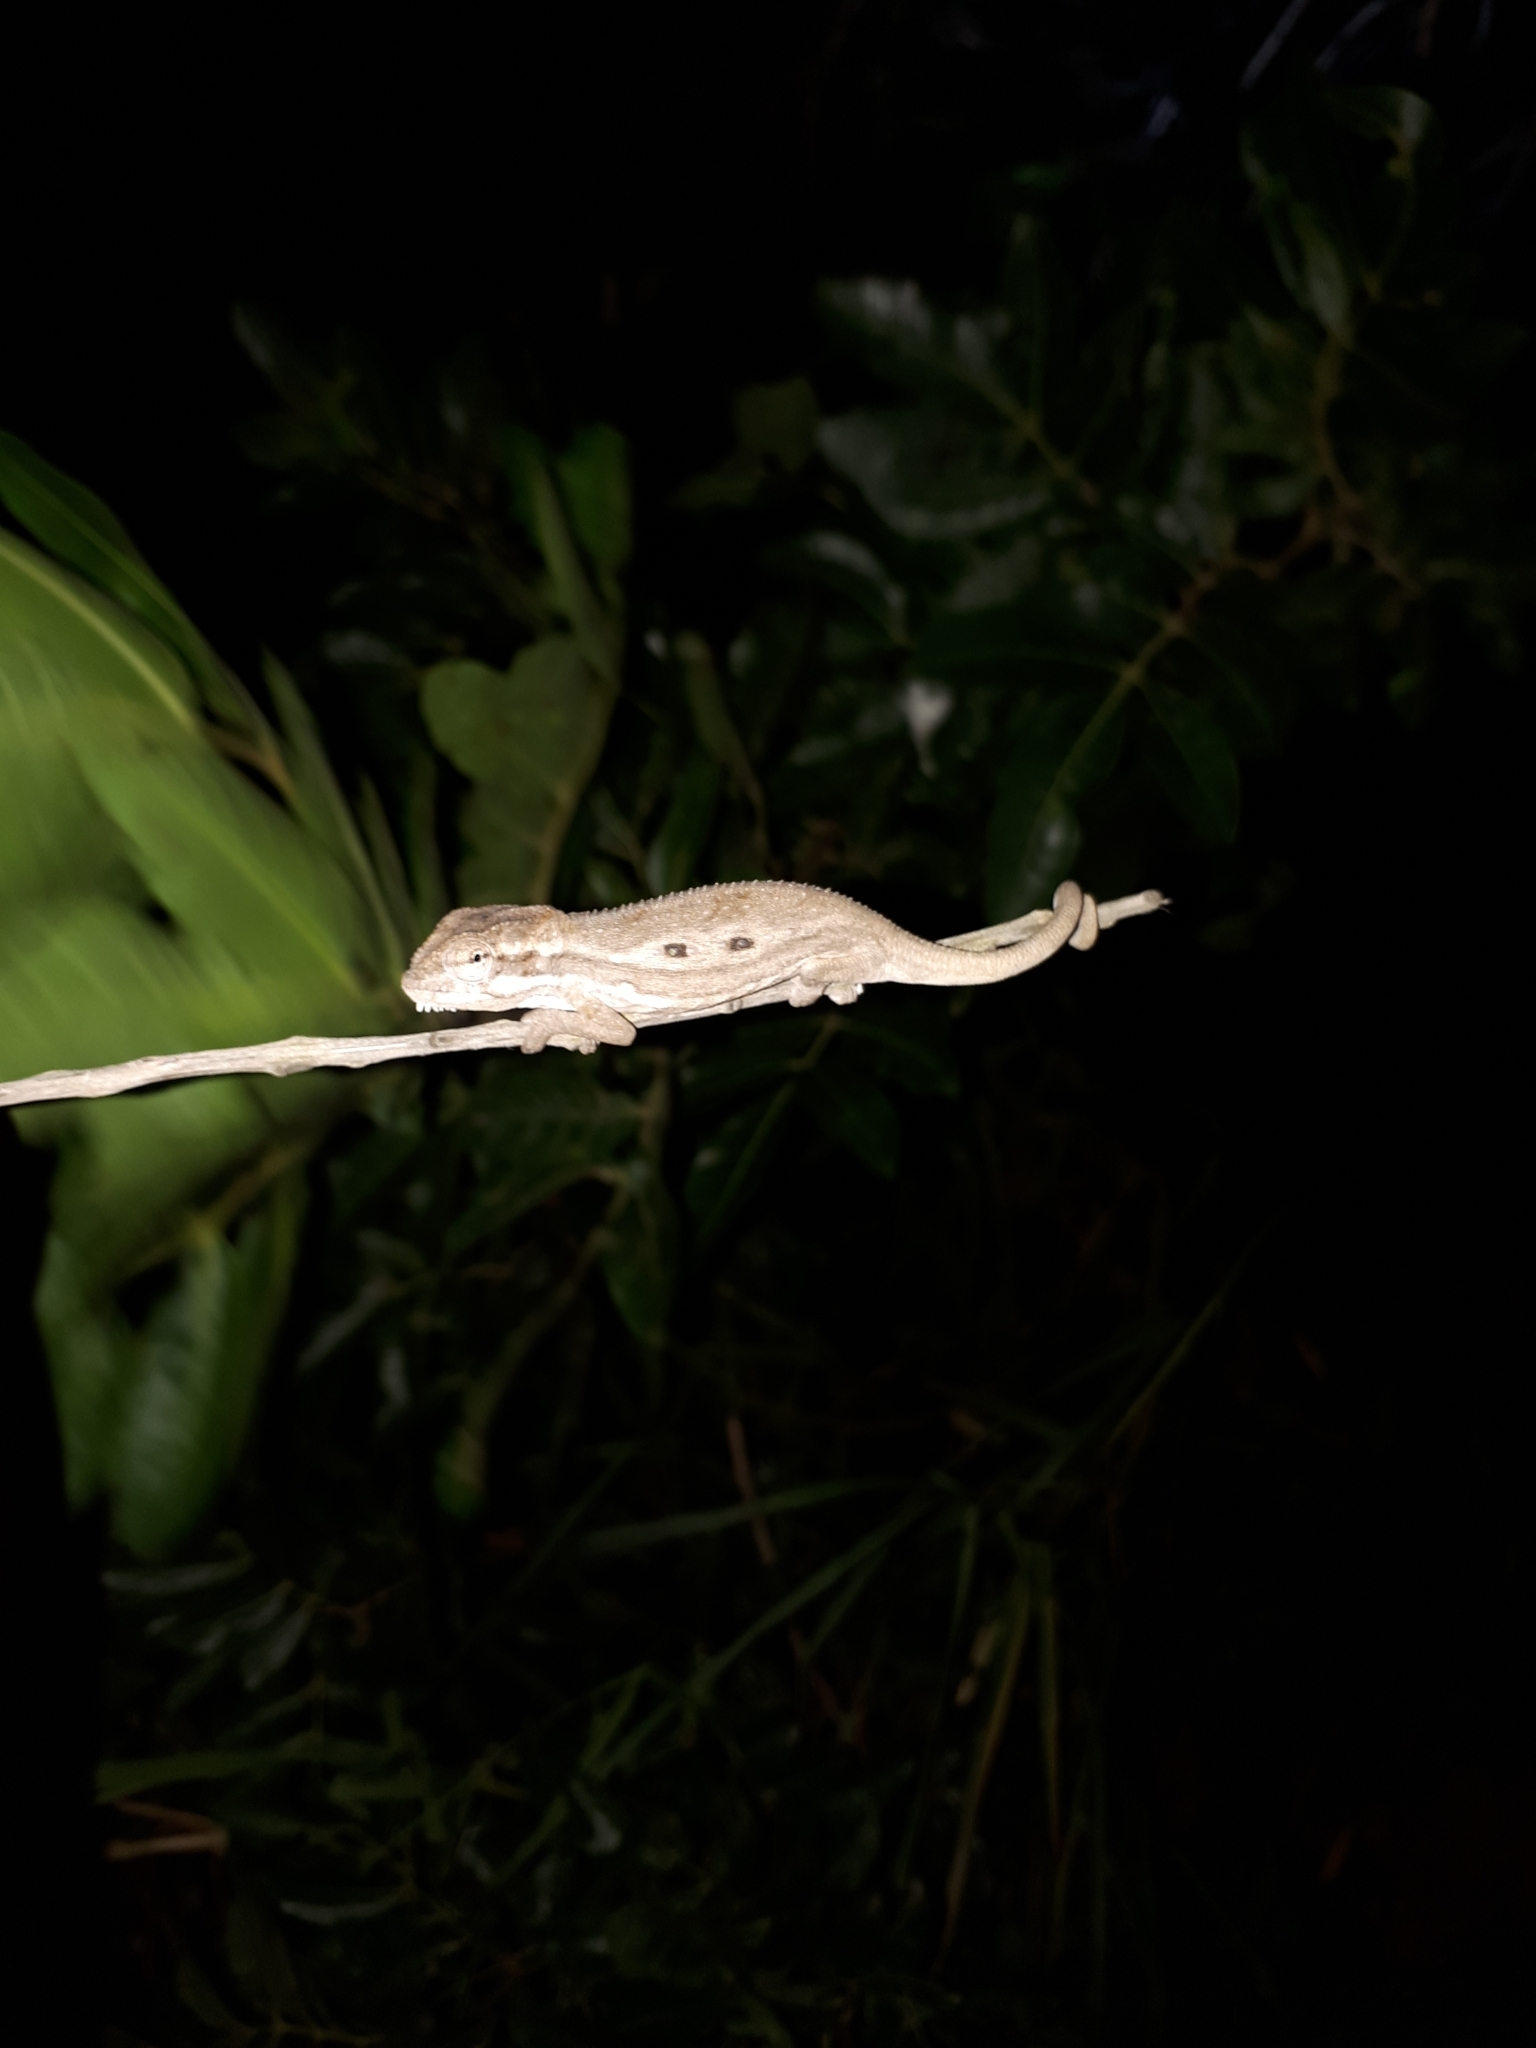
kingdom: Animalia
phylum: Chordata
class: Squamata
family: Chamaeleonidae
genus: Bradypodion
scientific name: Bradypodion pumilum
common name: Cape dwarf chameleon
